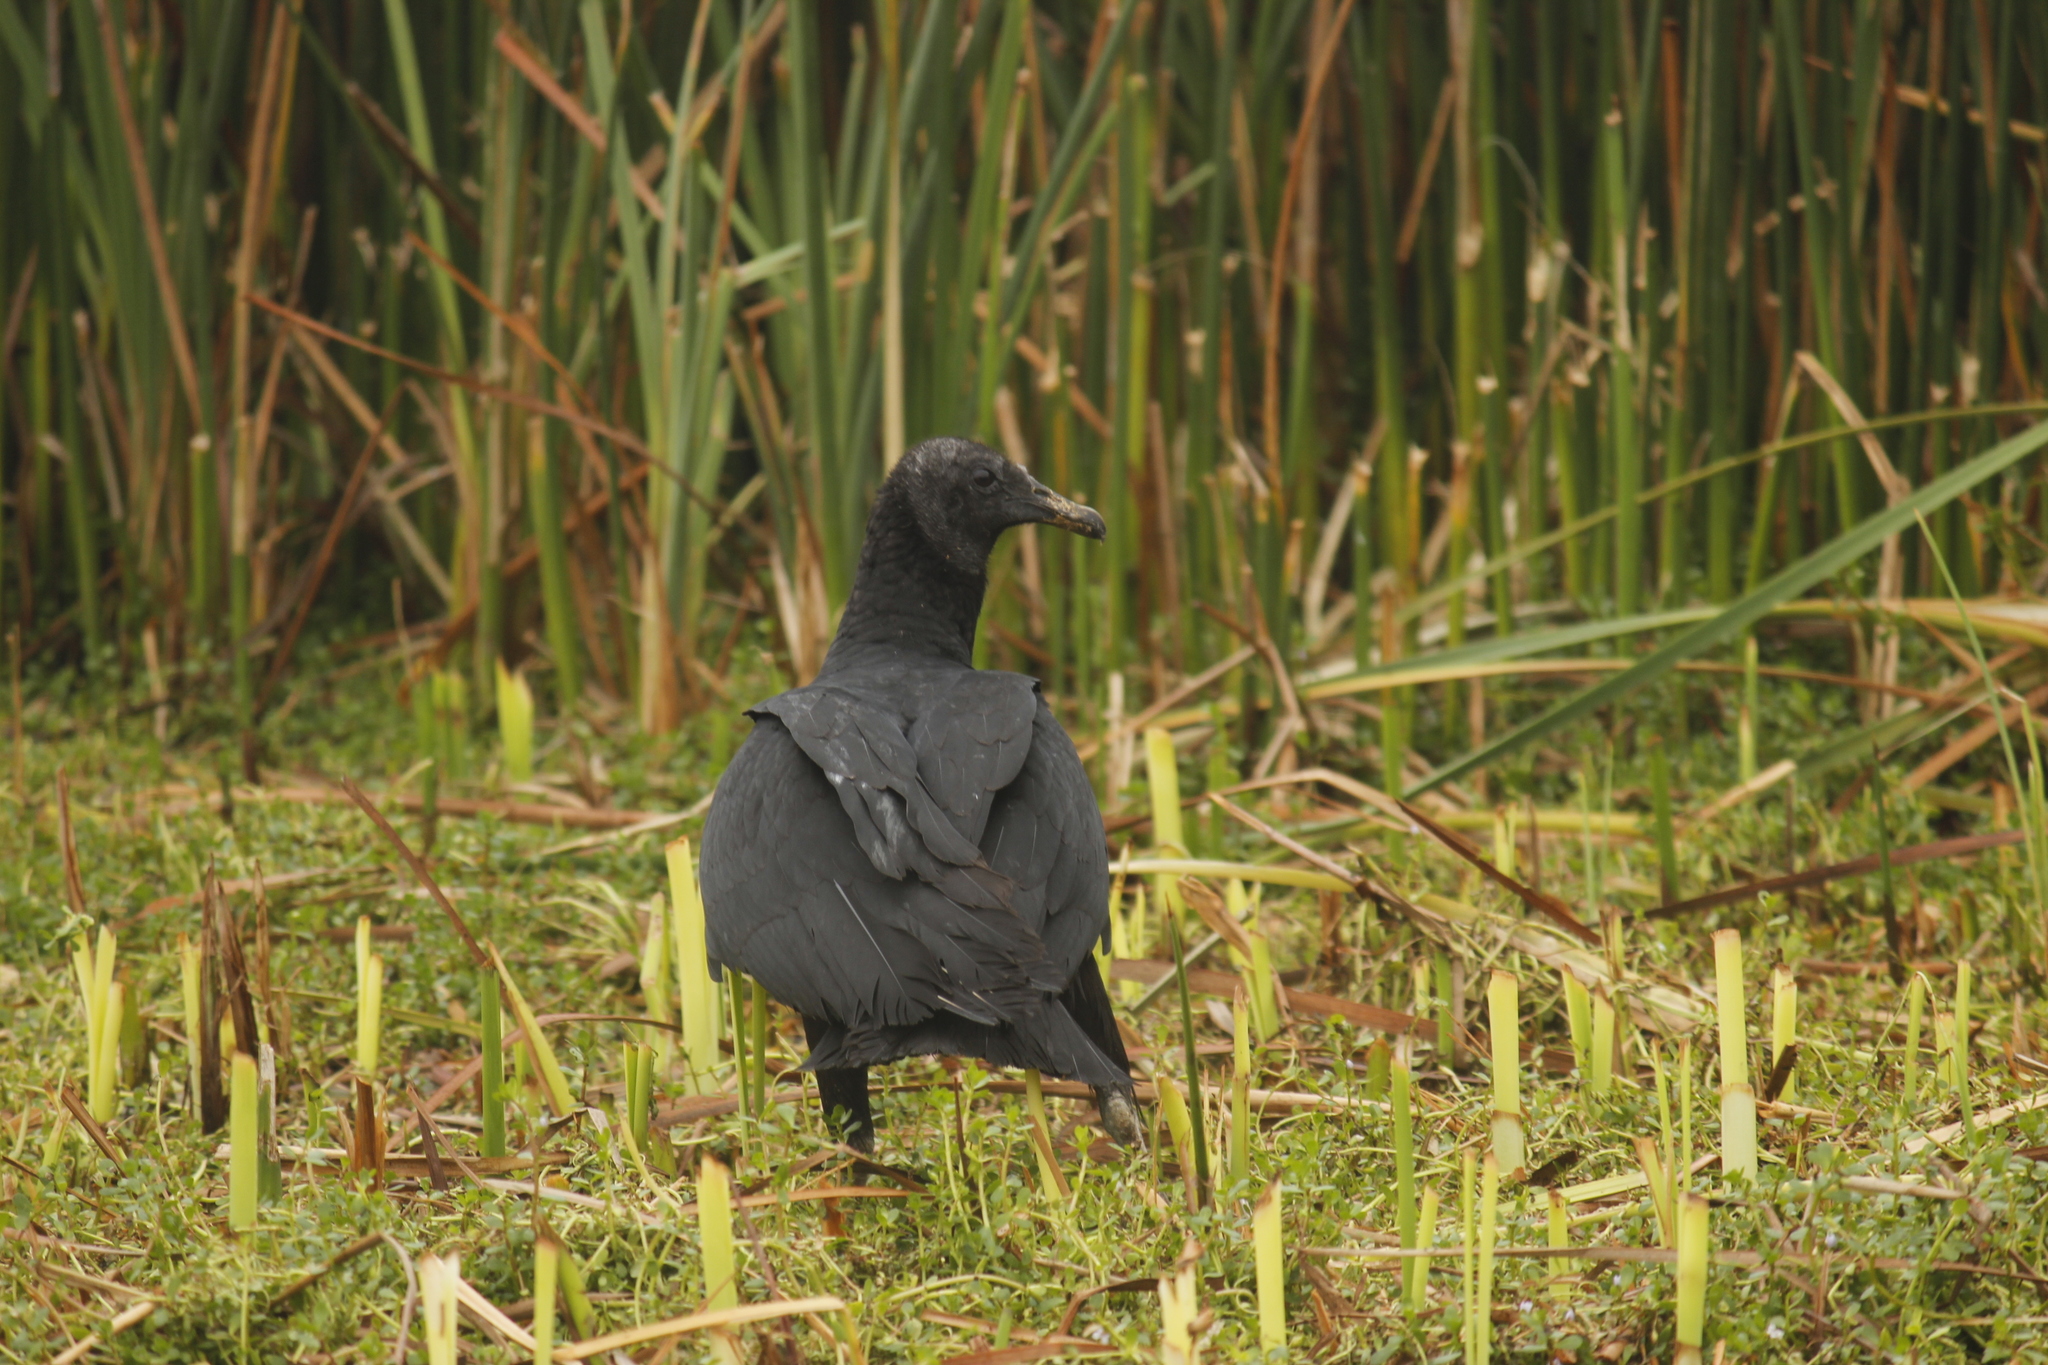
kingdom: Animalia
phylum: Chordata
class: Aves
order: Accipitriformes
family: Cathartidae
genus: Coragyps
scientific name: Coragyps atratus
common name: Black vulture
